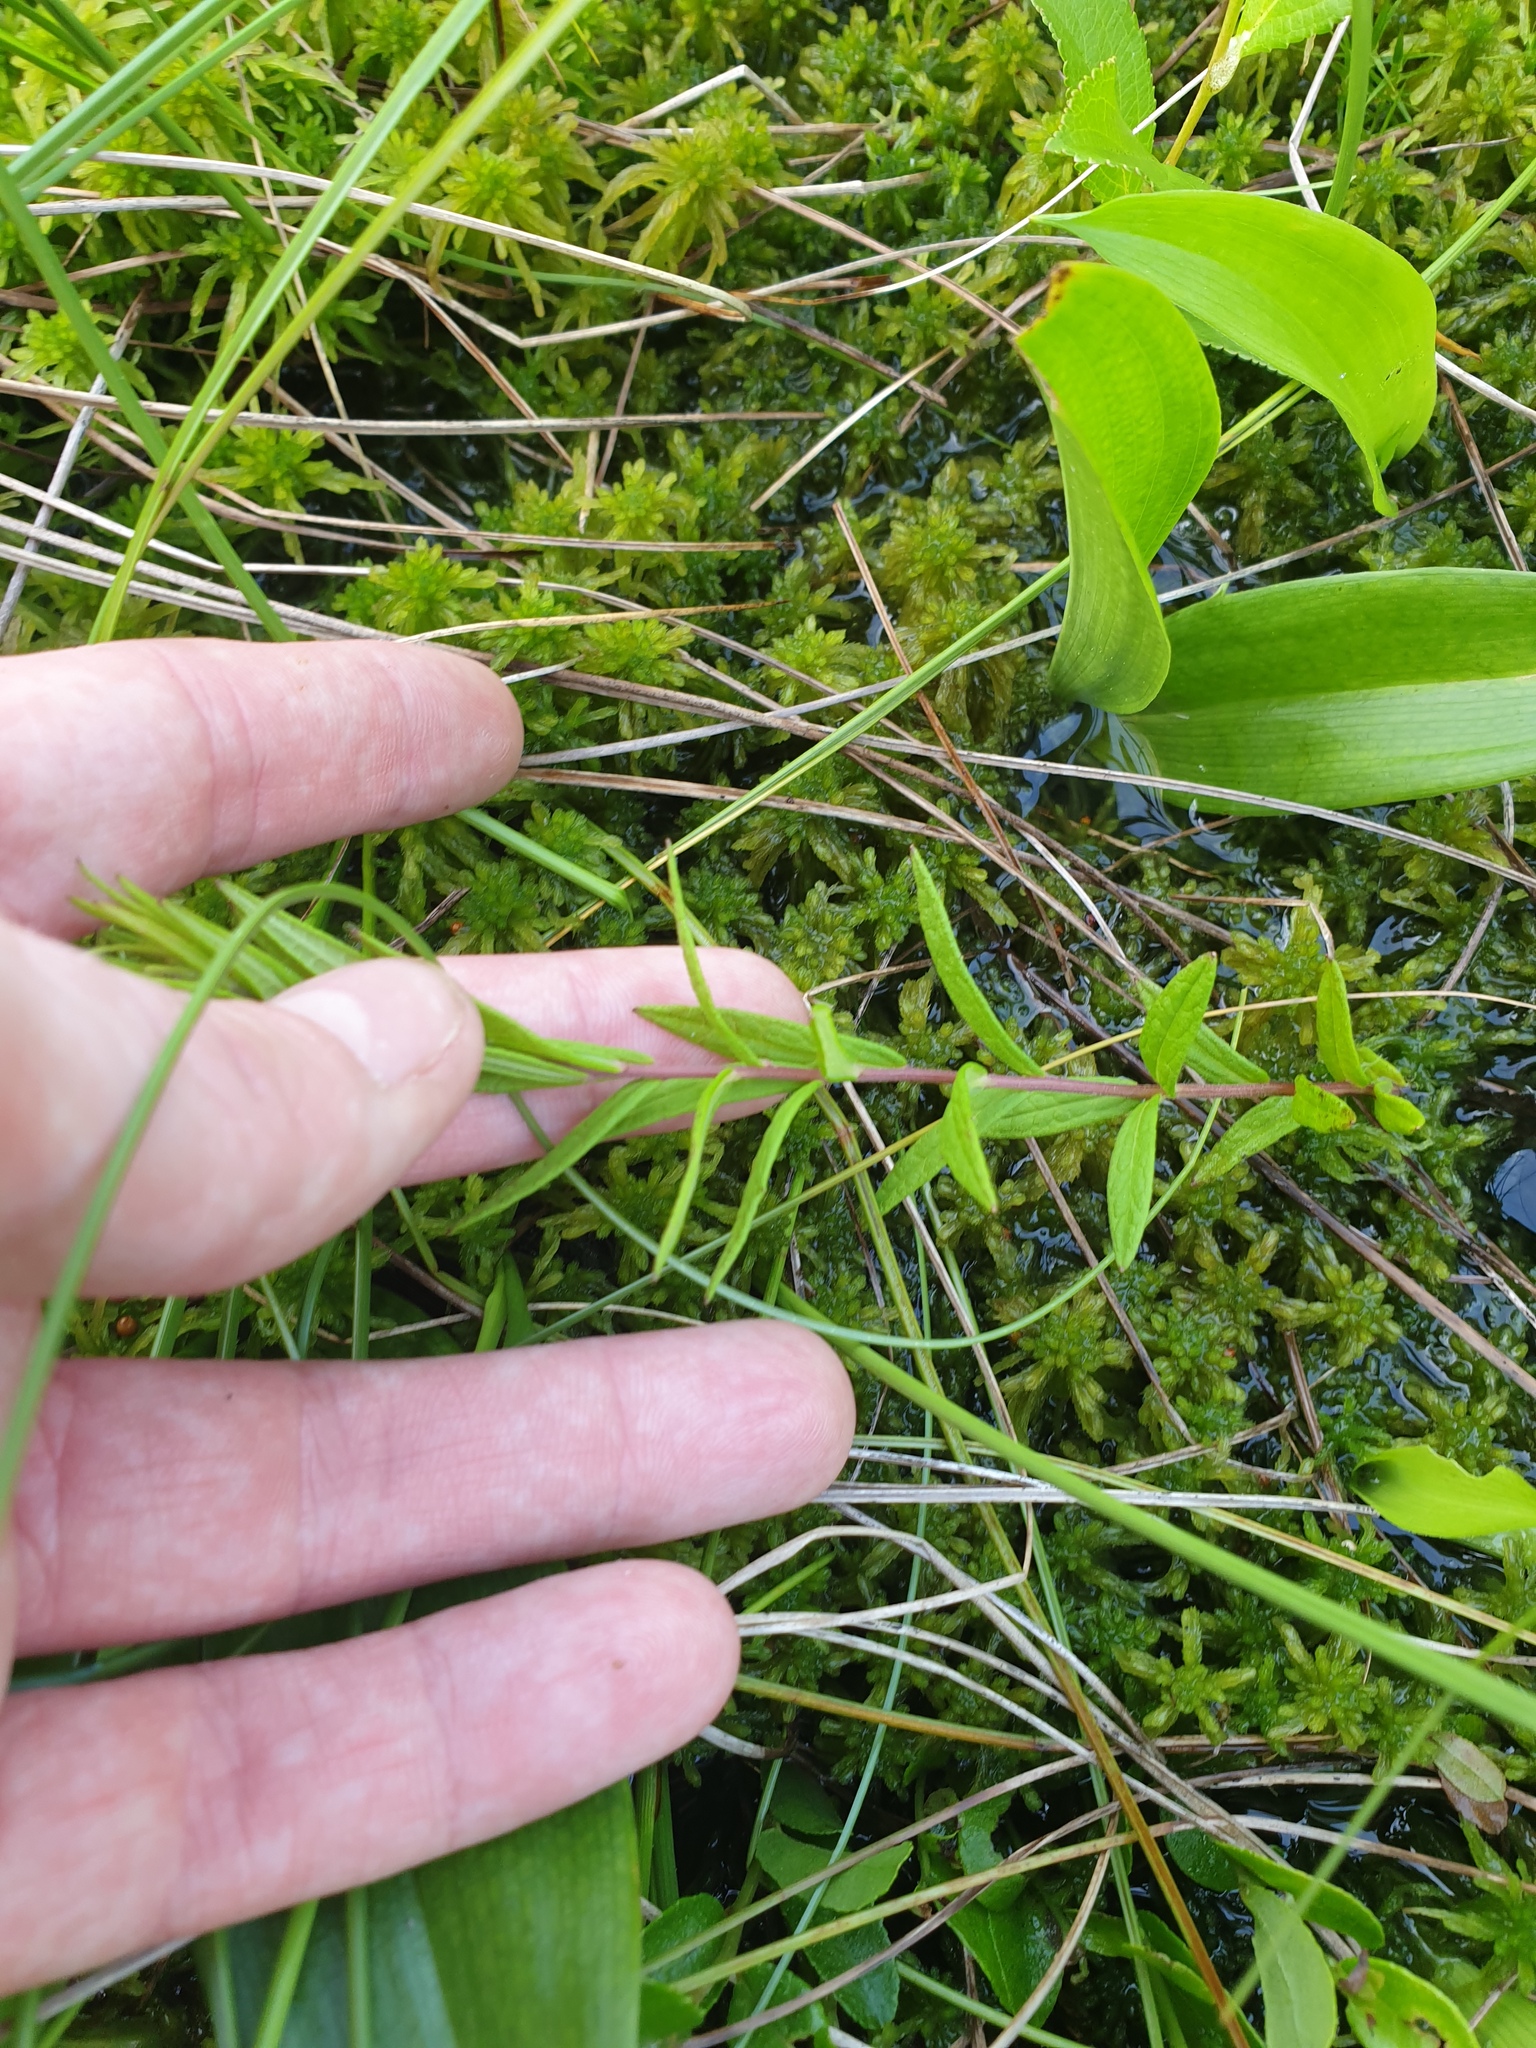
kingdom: Plantae
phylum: Tracheophyta
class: Magnoliopsida
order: Asterales
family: Asteraceae
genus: Oclemena
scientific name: Oclemena nemoralis
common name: Bog aster
